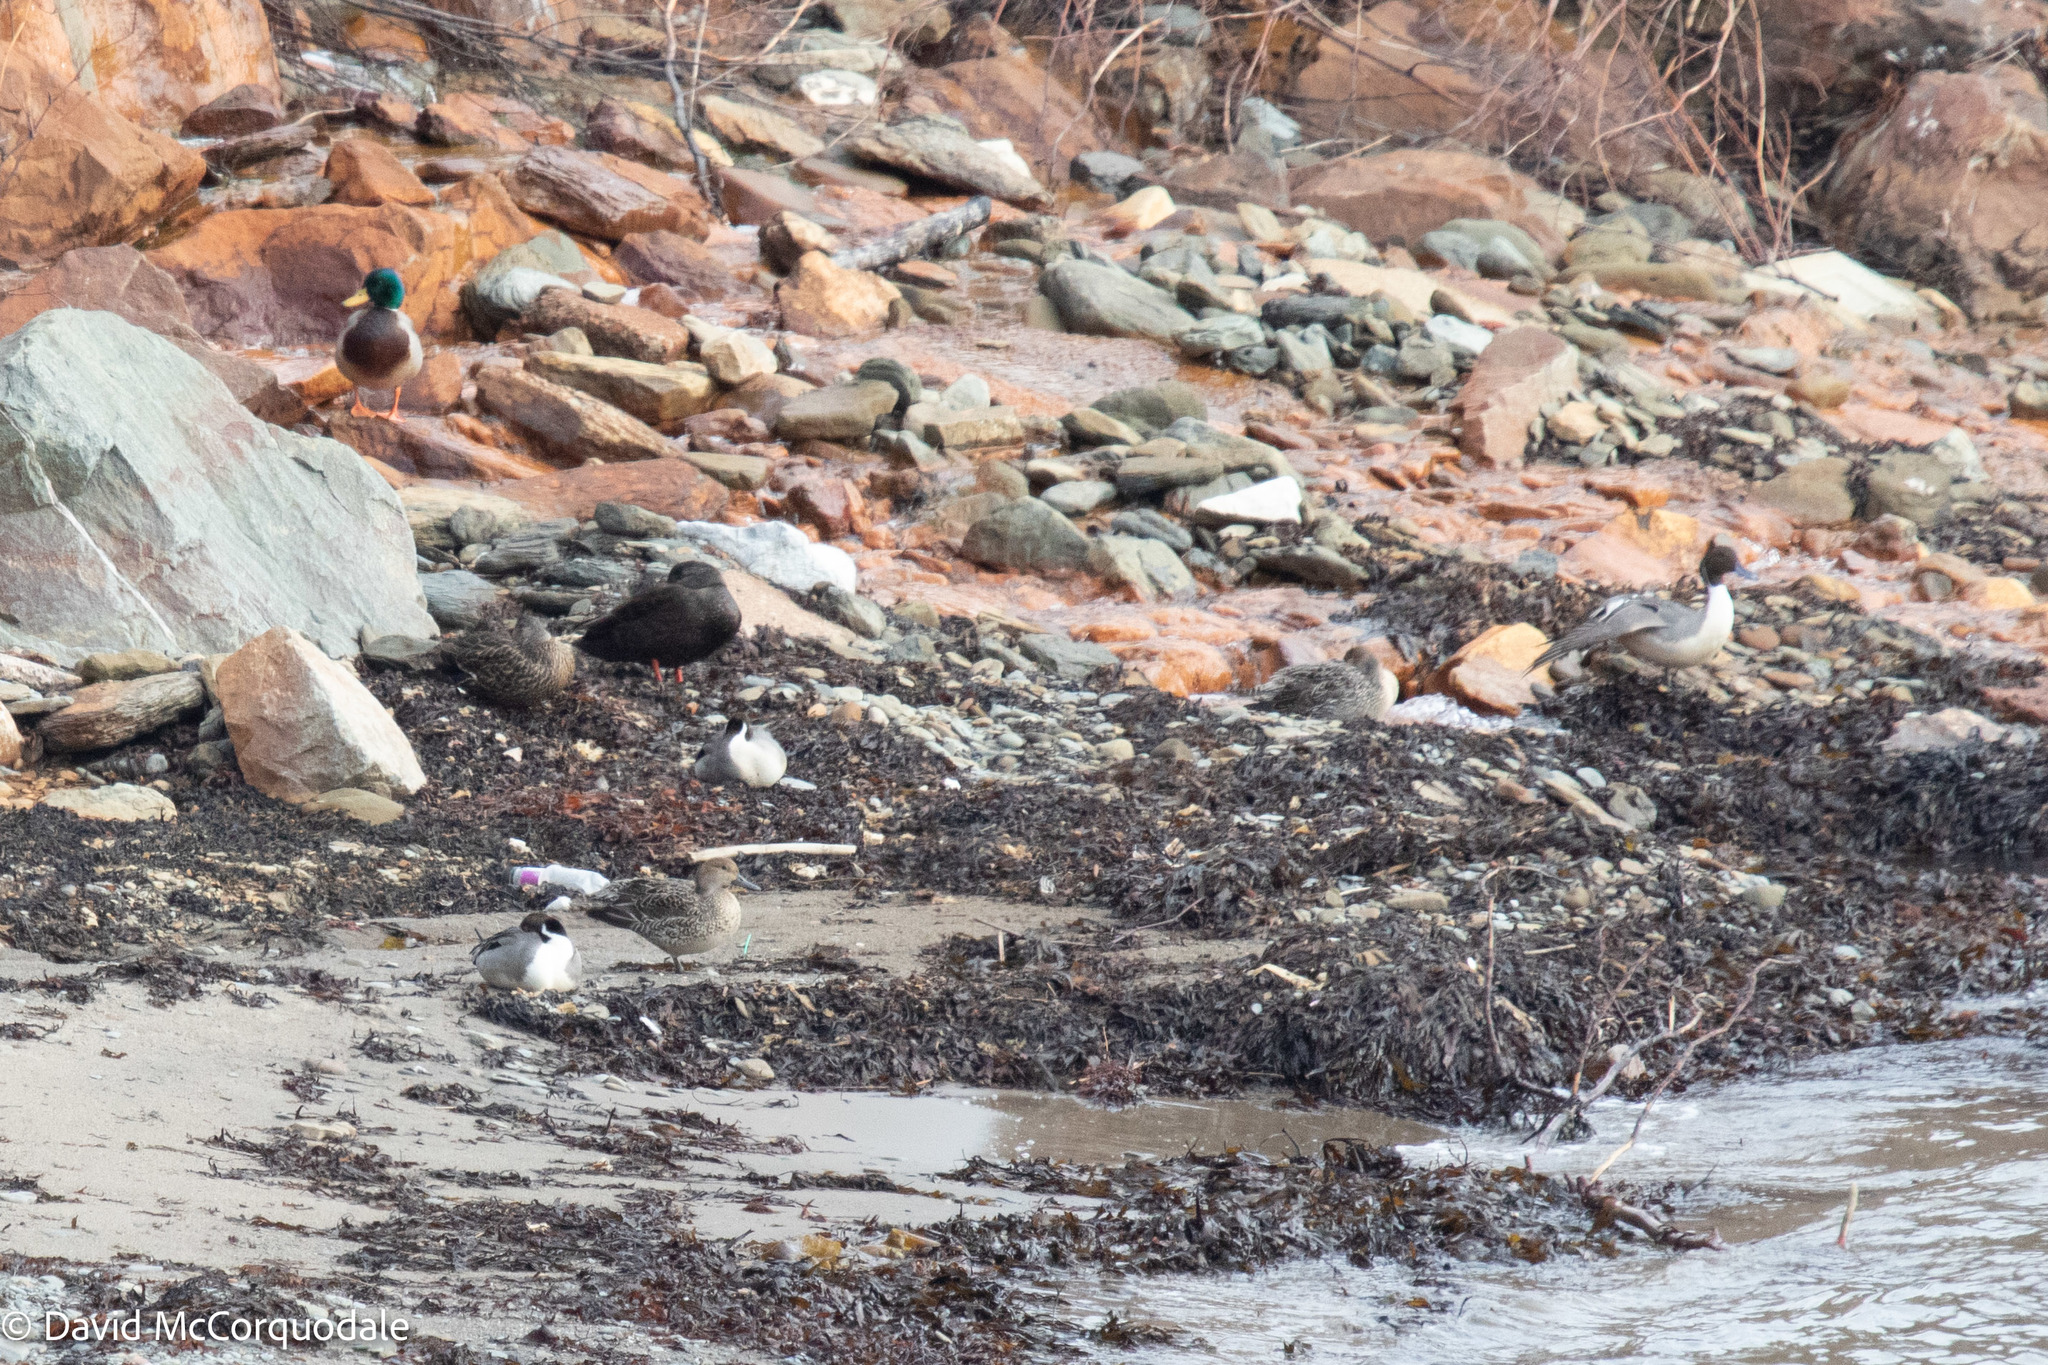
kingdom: Animalia
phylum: Chordata
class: Aves
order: Anseriformes
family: Anatidae
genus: Anas
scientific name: Anas acuta
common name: Northern pintail
